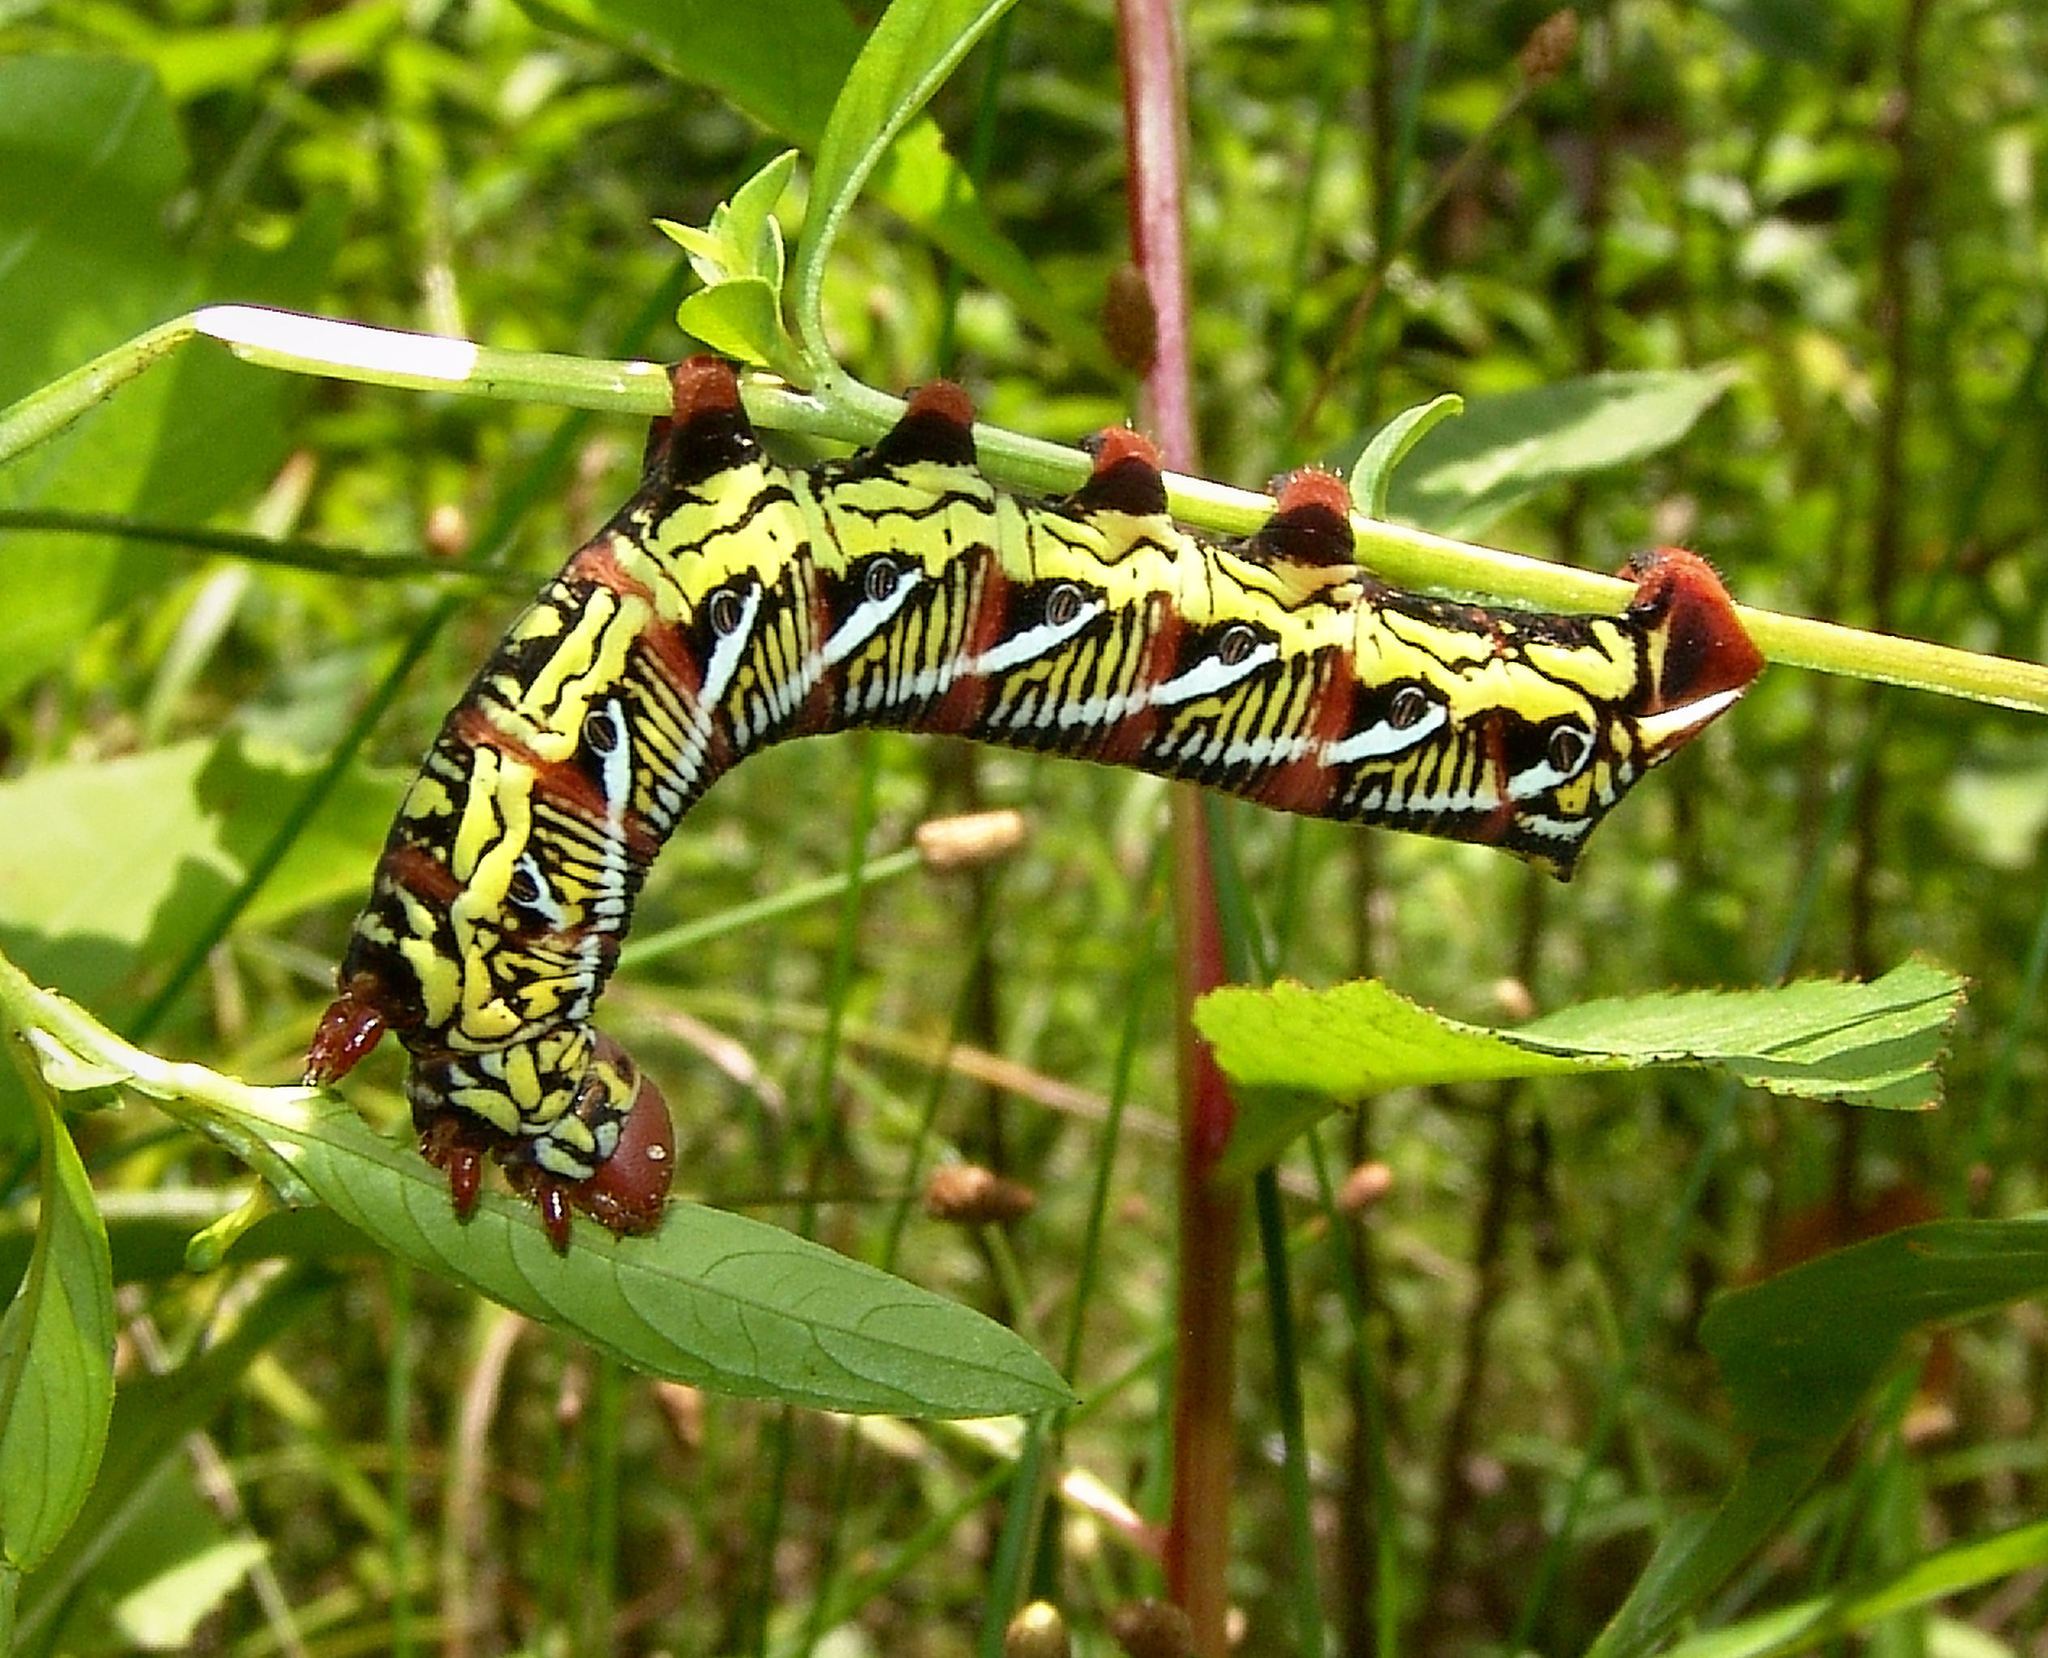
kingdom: Animalia
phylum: Arthropoda
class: Insecta
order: Lepidoptera
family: Sphingidae
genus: Eumorpha
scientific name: Eumorpha fasciatus
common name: Banded sphinx
